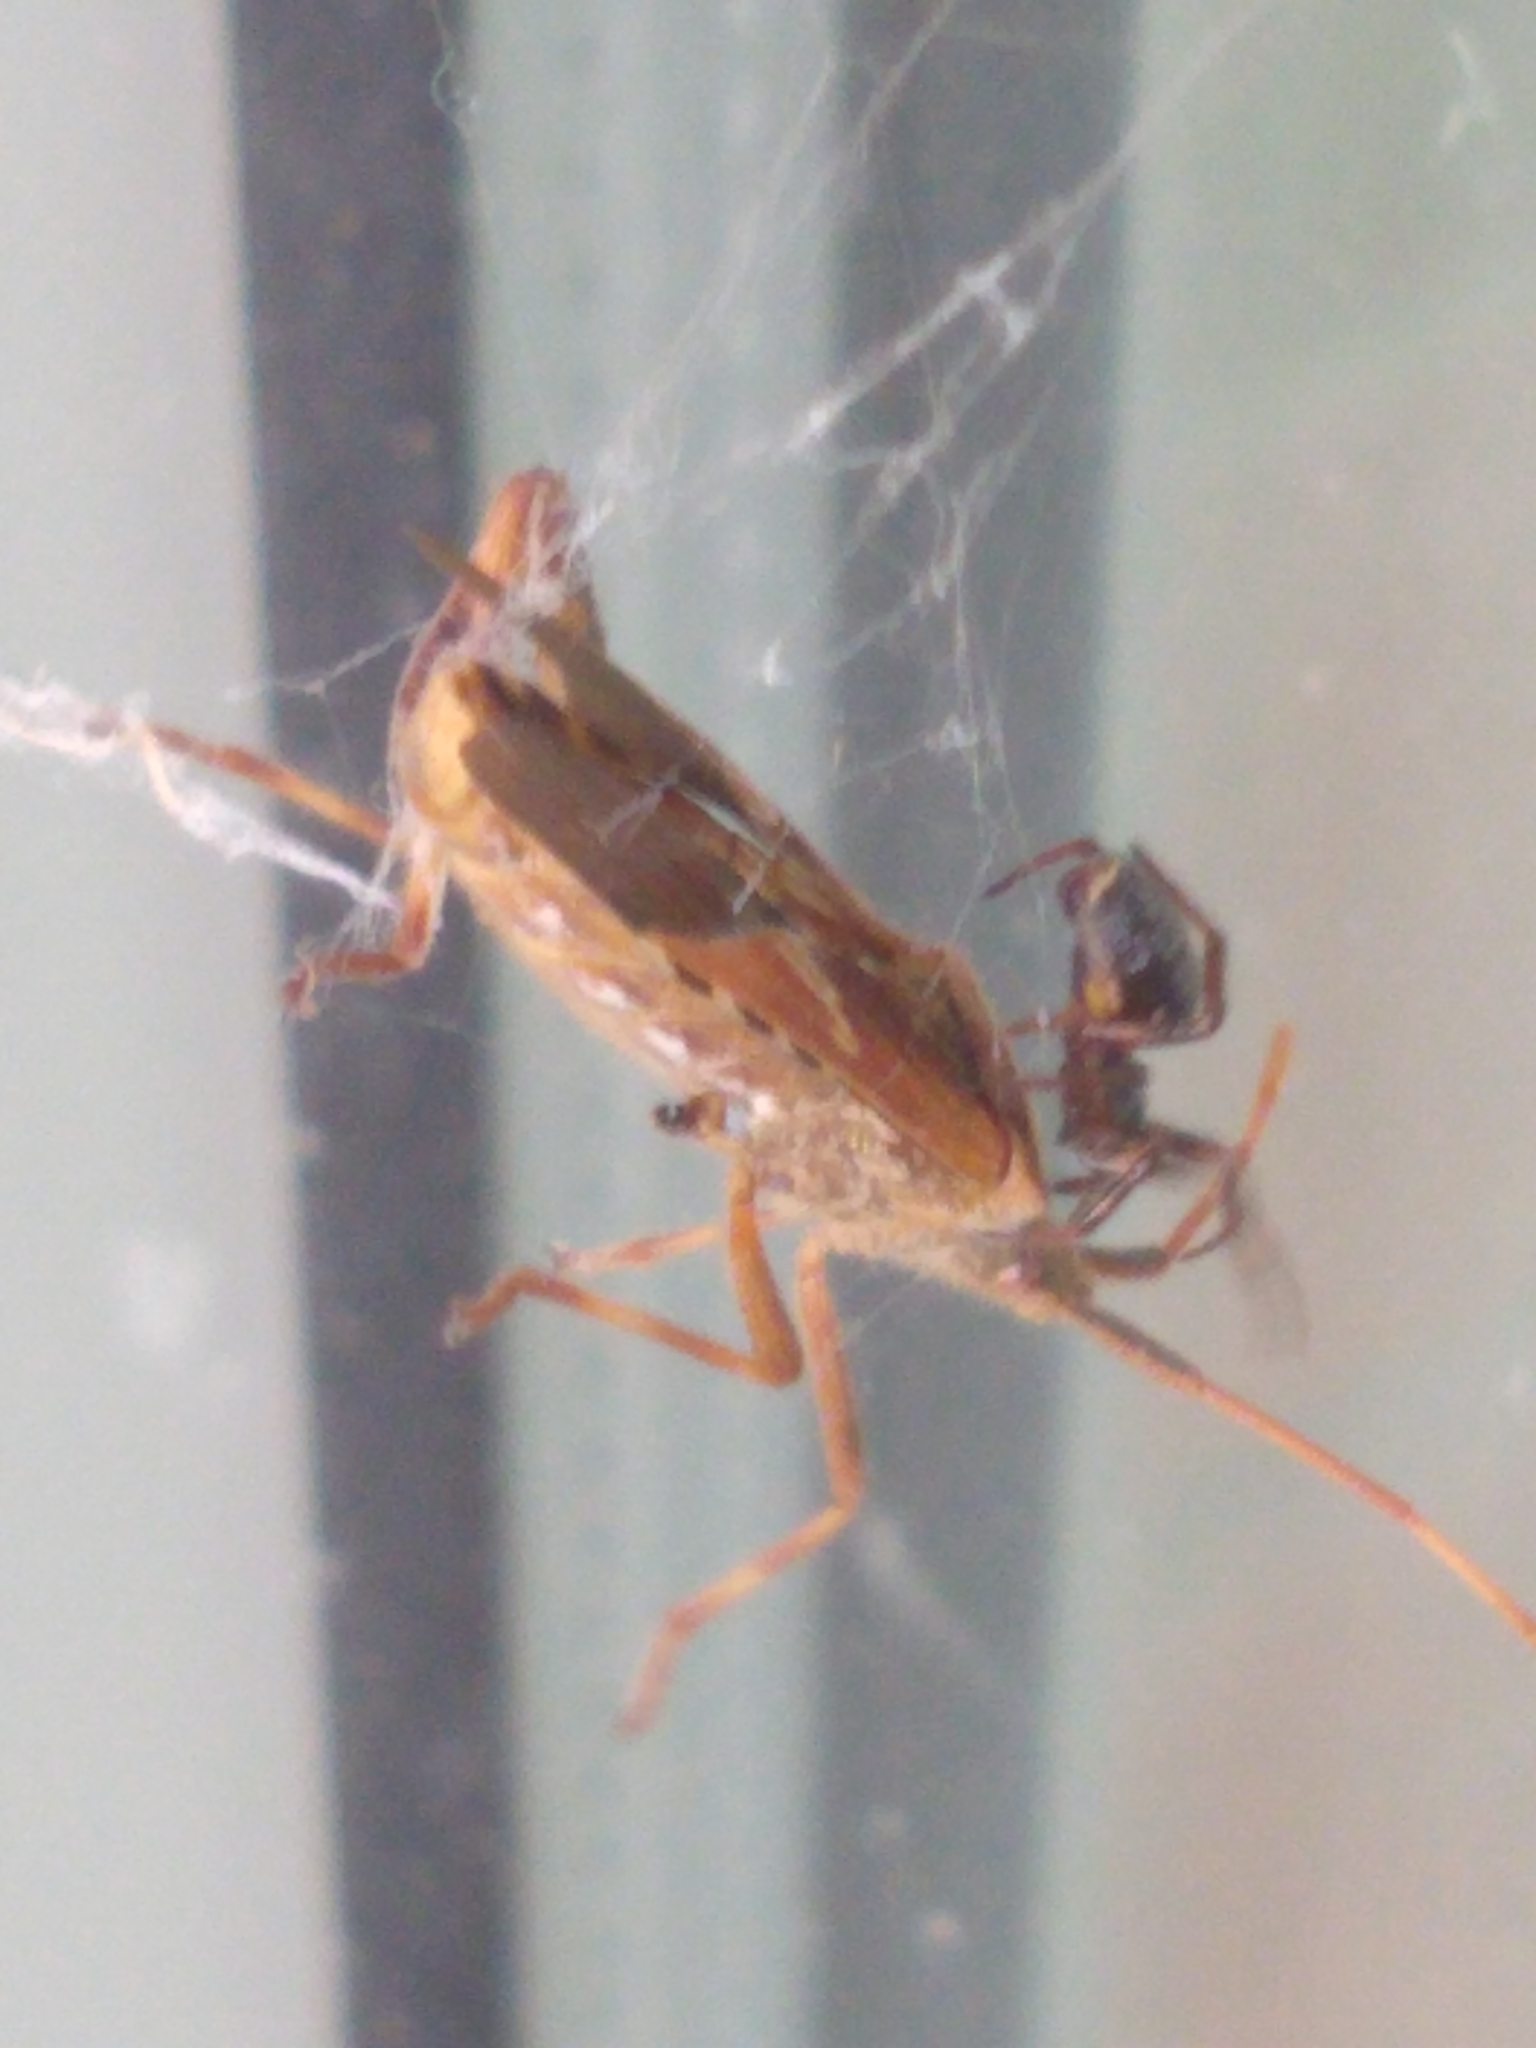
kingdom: Animalia
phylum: Arthropoda
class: Insecta
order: Hemiptera
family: Coreidae
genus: Leptoglossus
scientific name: Leptoglossus occidentalis
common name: Western conifer-seed bug
